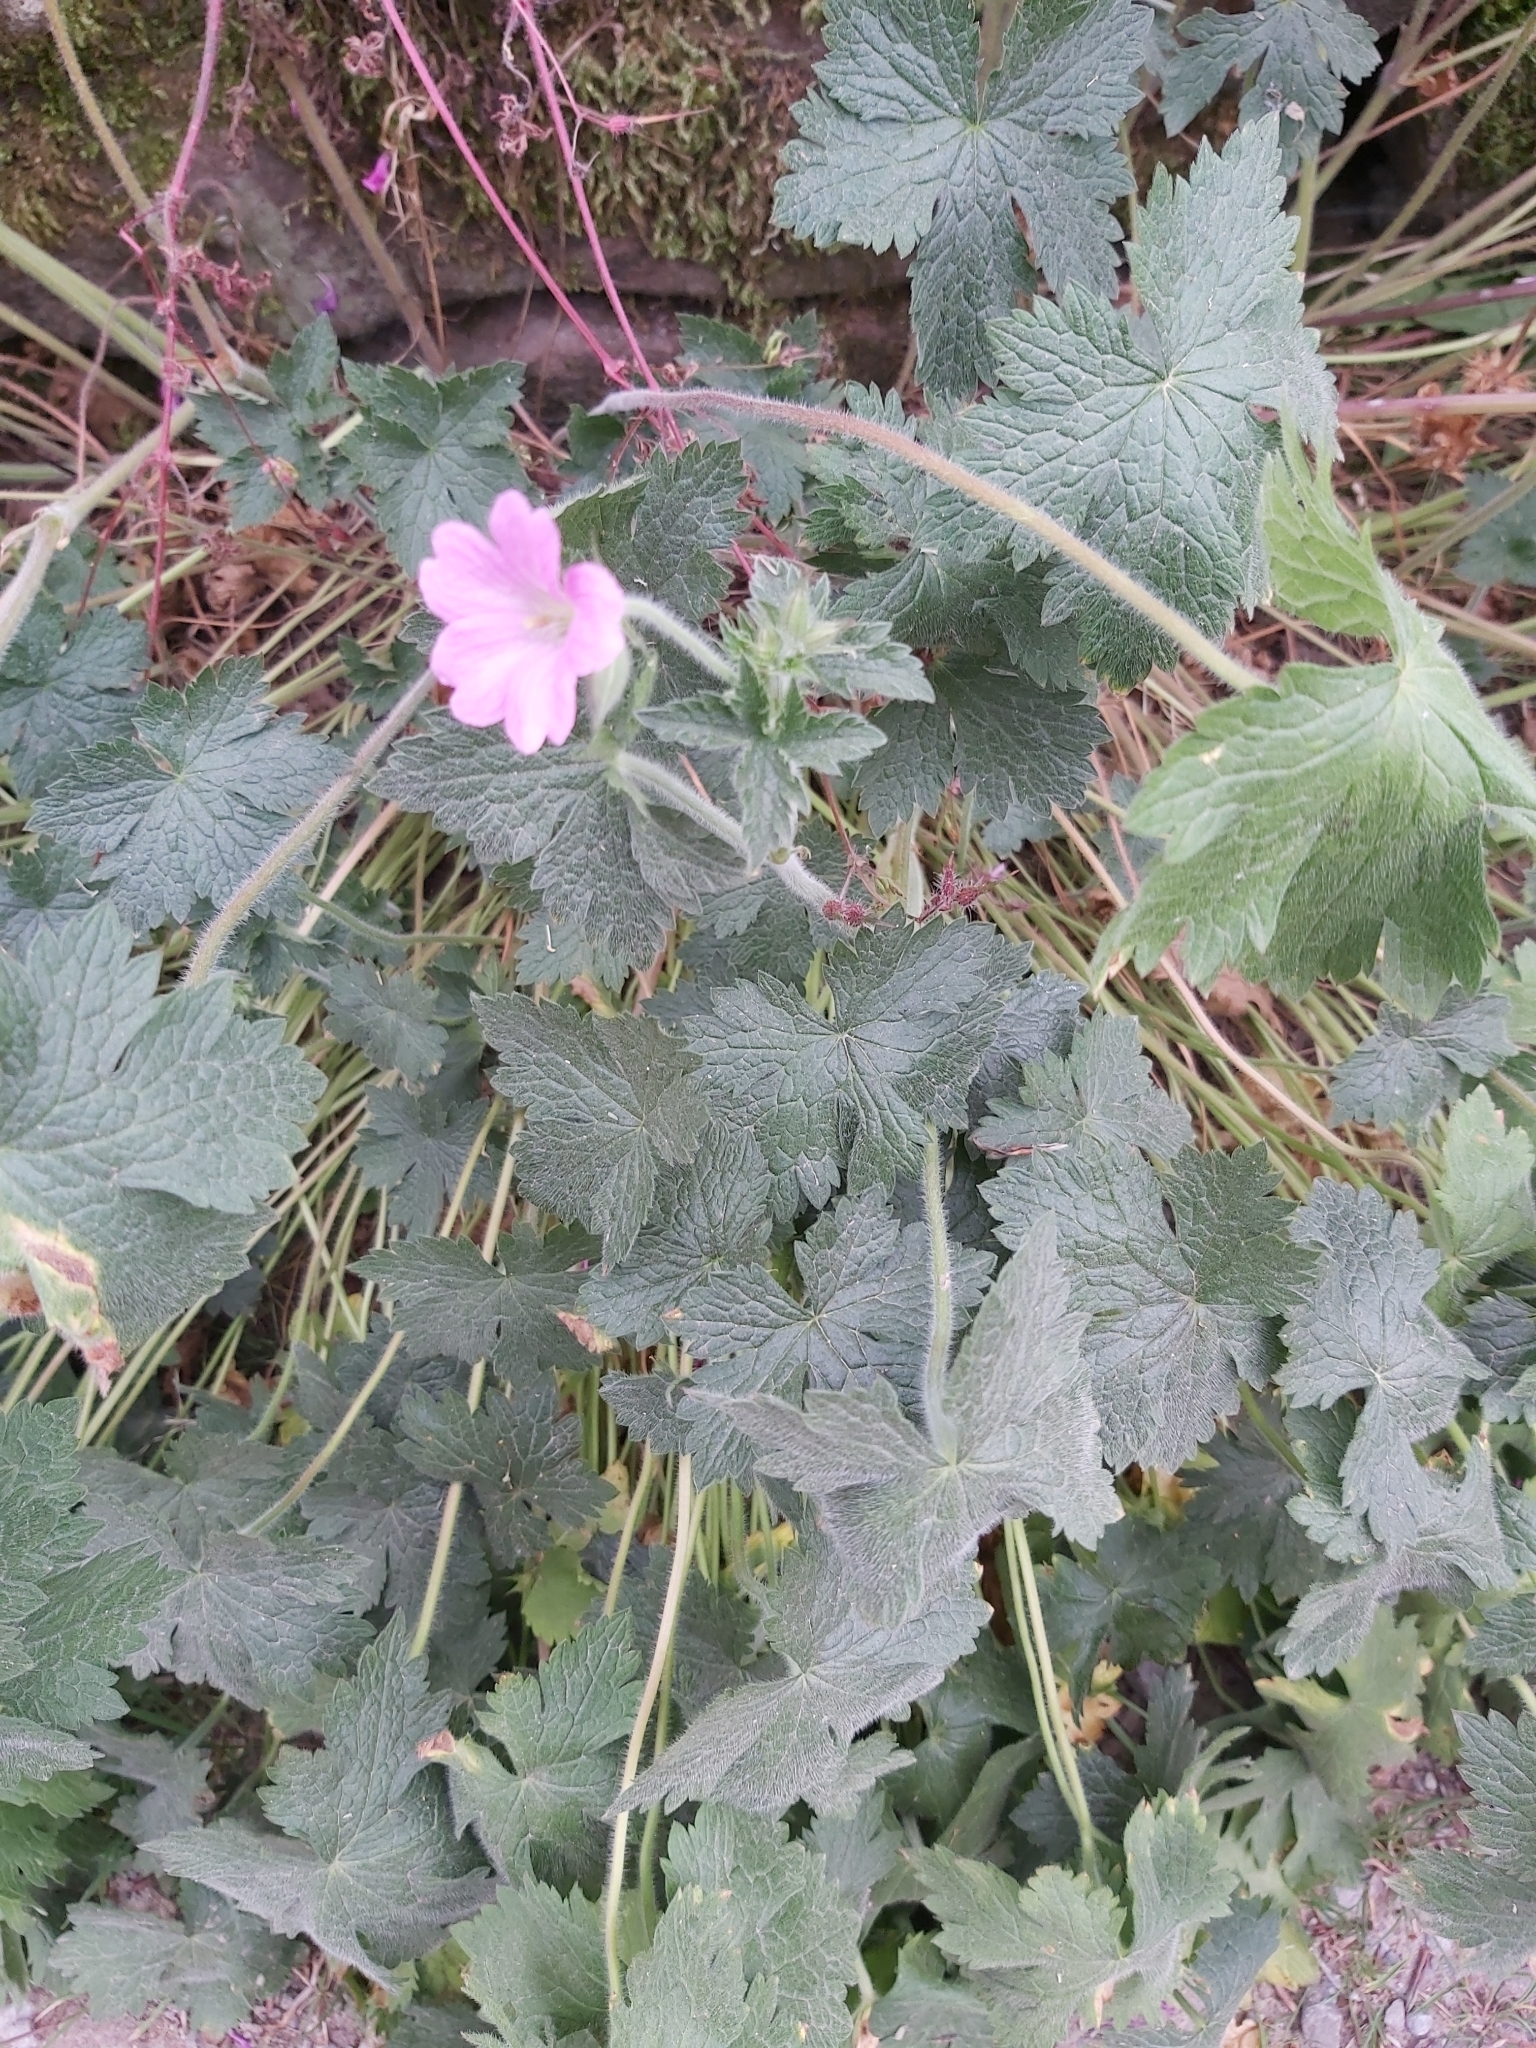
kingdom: Plantae
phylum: Tracheophyta
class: Magnoliopsida
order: Geraniales
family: Geraniaceae
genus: Geranium
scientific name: Geranium oxonianum
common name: Druce's crane's-bill
